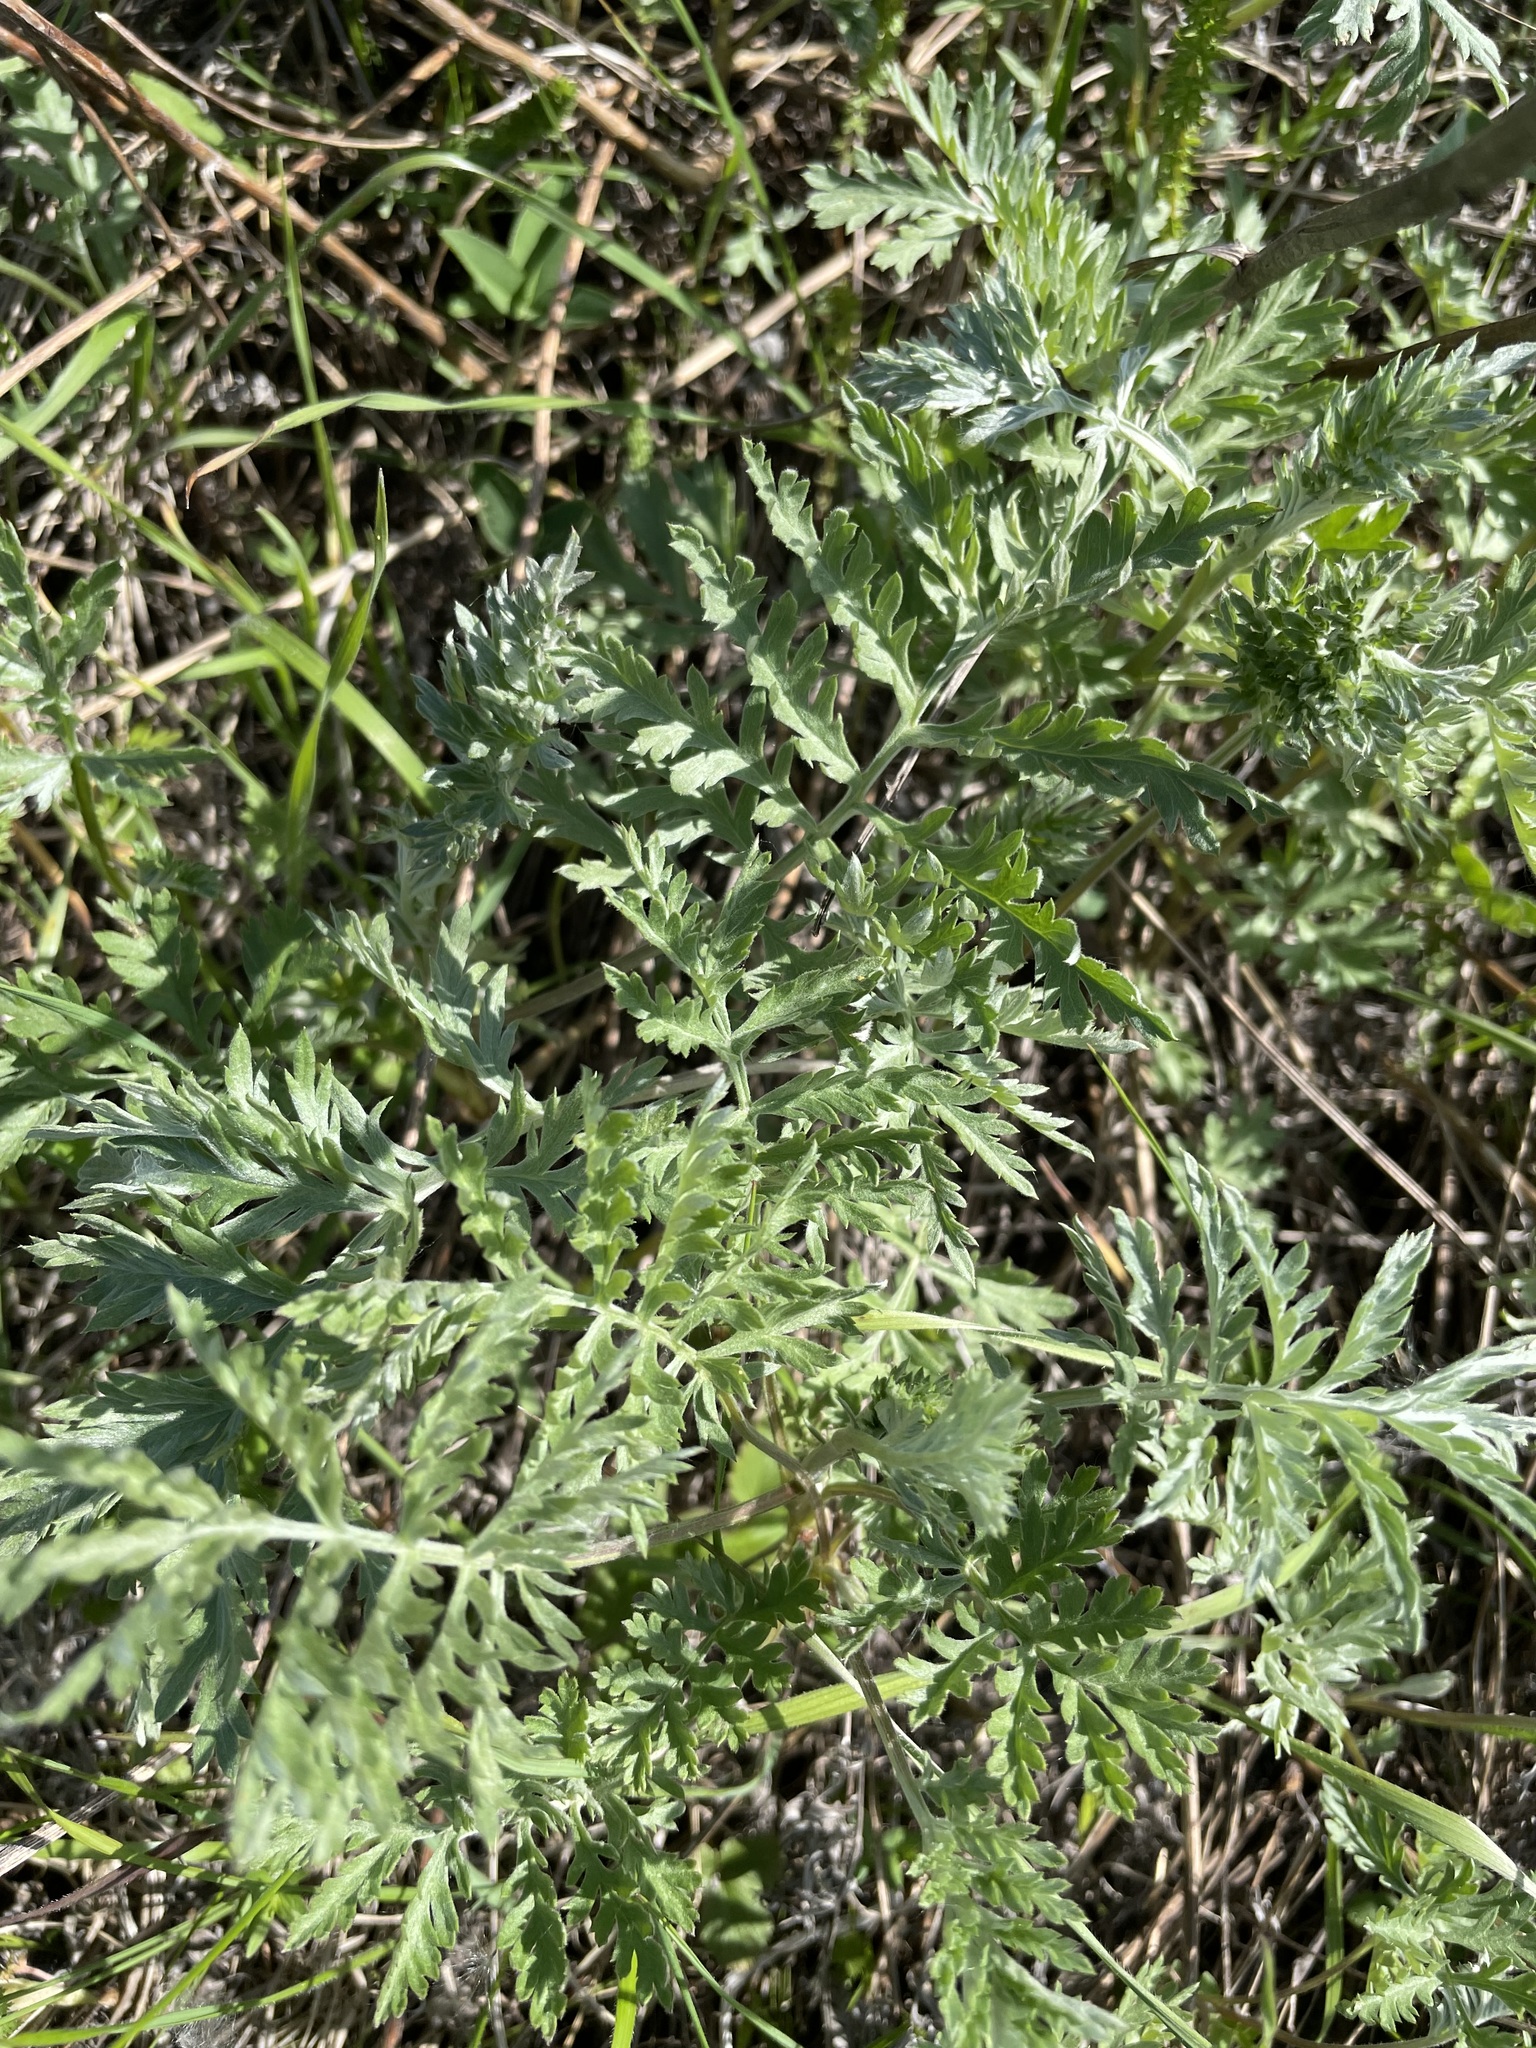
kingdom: Plantae
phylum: Tracheophyta
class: Magnoliopsida
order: Asterales
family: Asteraceae
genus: Artemisia
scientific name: Artemisia armeniaca
